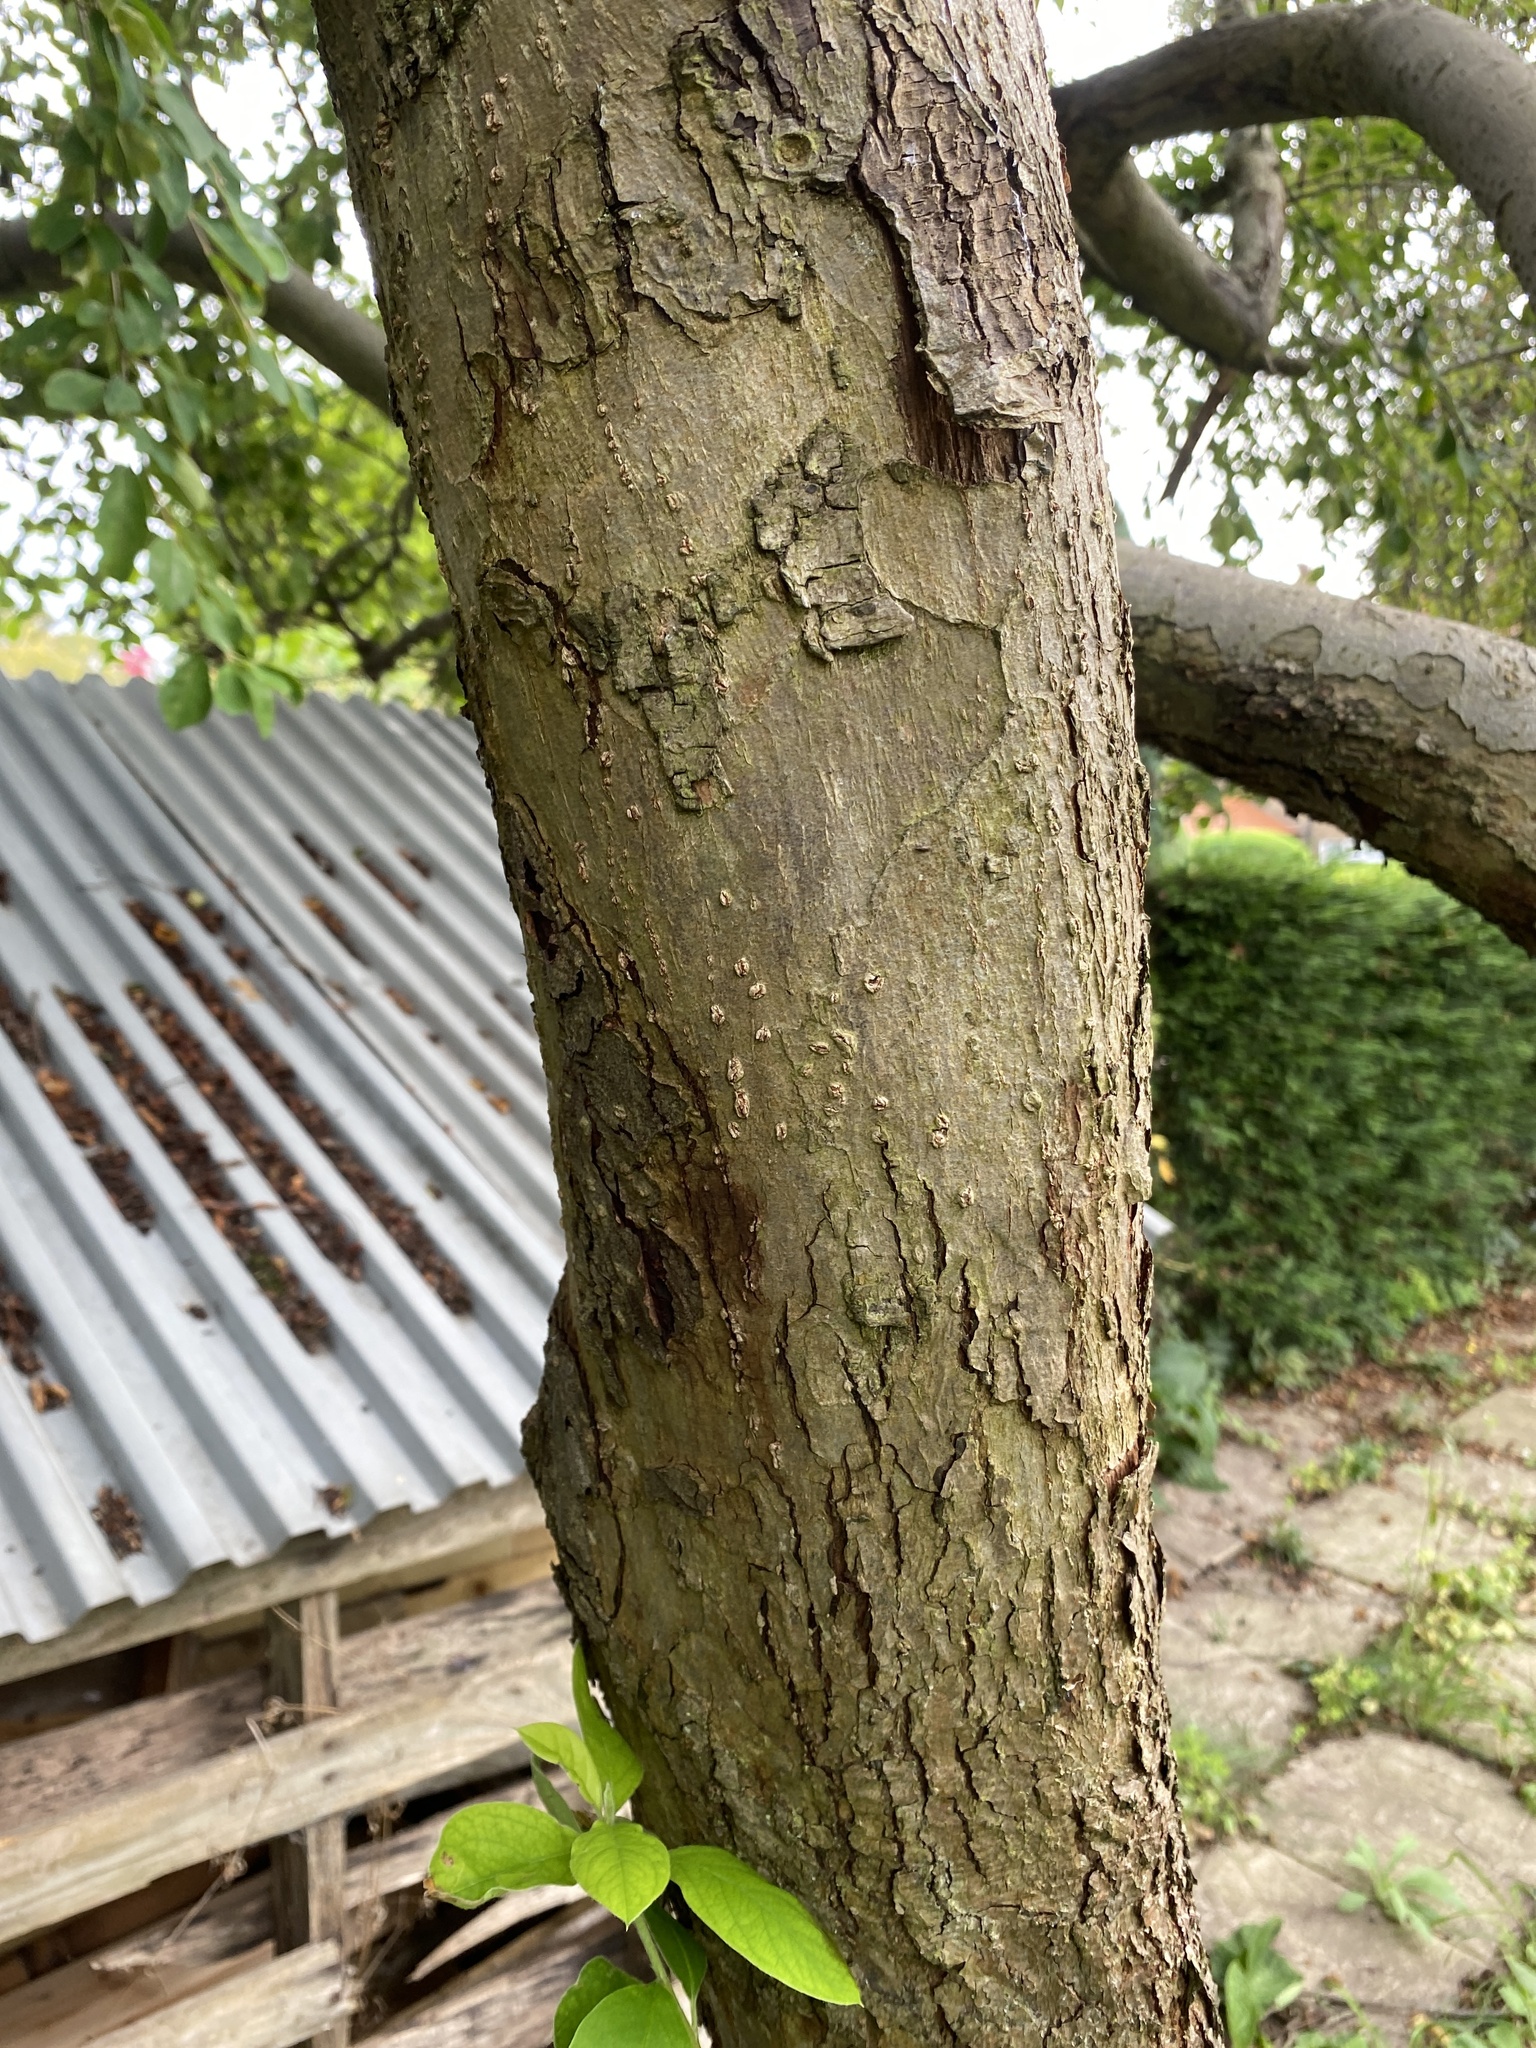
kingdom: Plantae
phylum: Tracheophyta
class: Magnoliopsida
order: Rosales
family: Rosaceae
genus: Prunus
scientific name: Prunus padus
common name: Bird cherry
